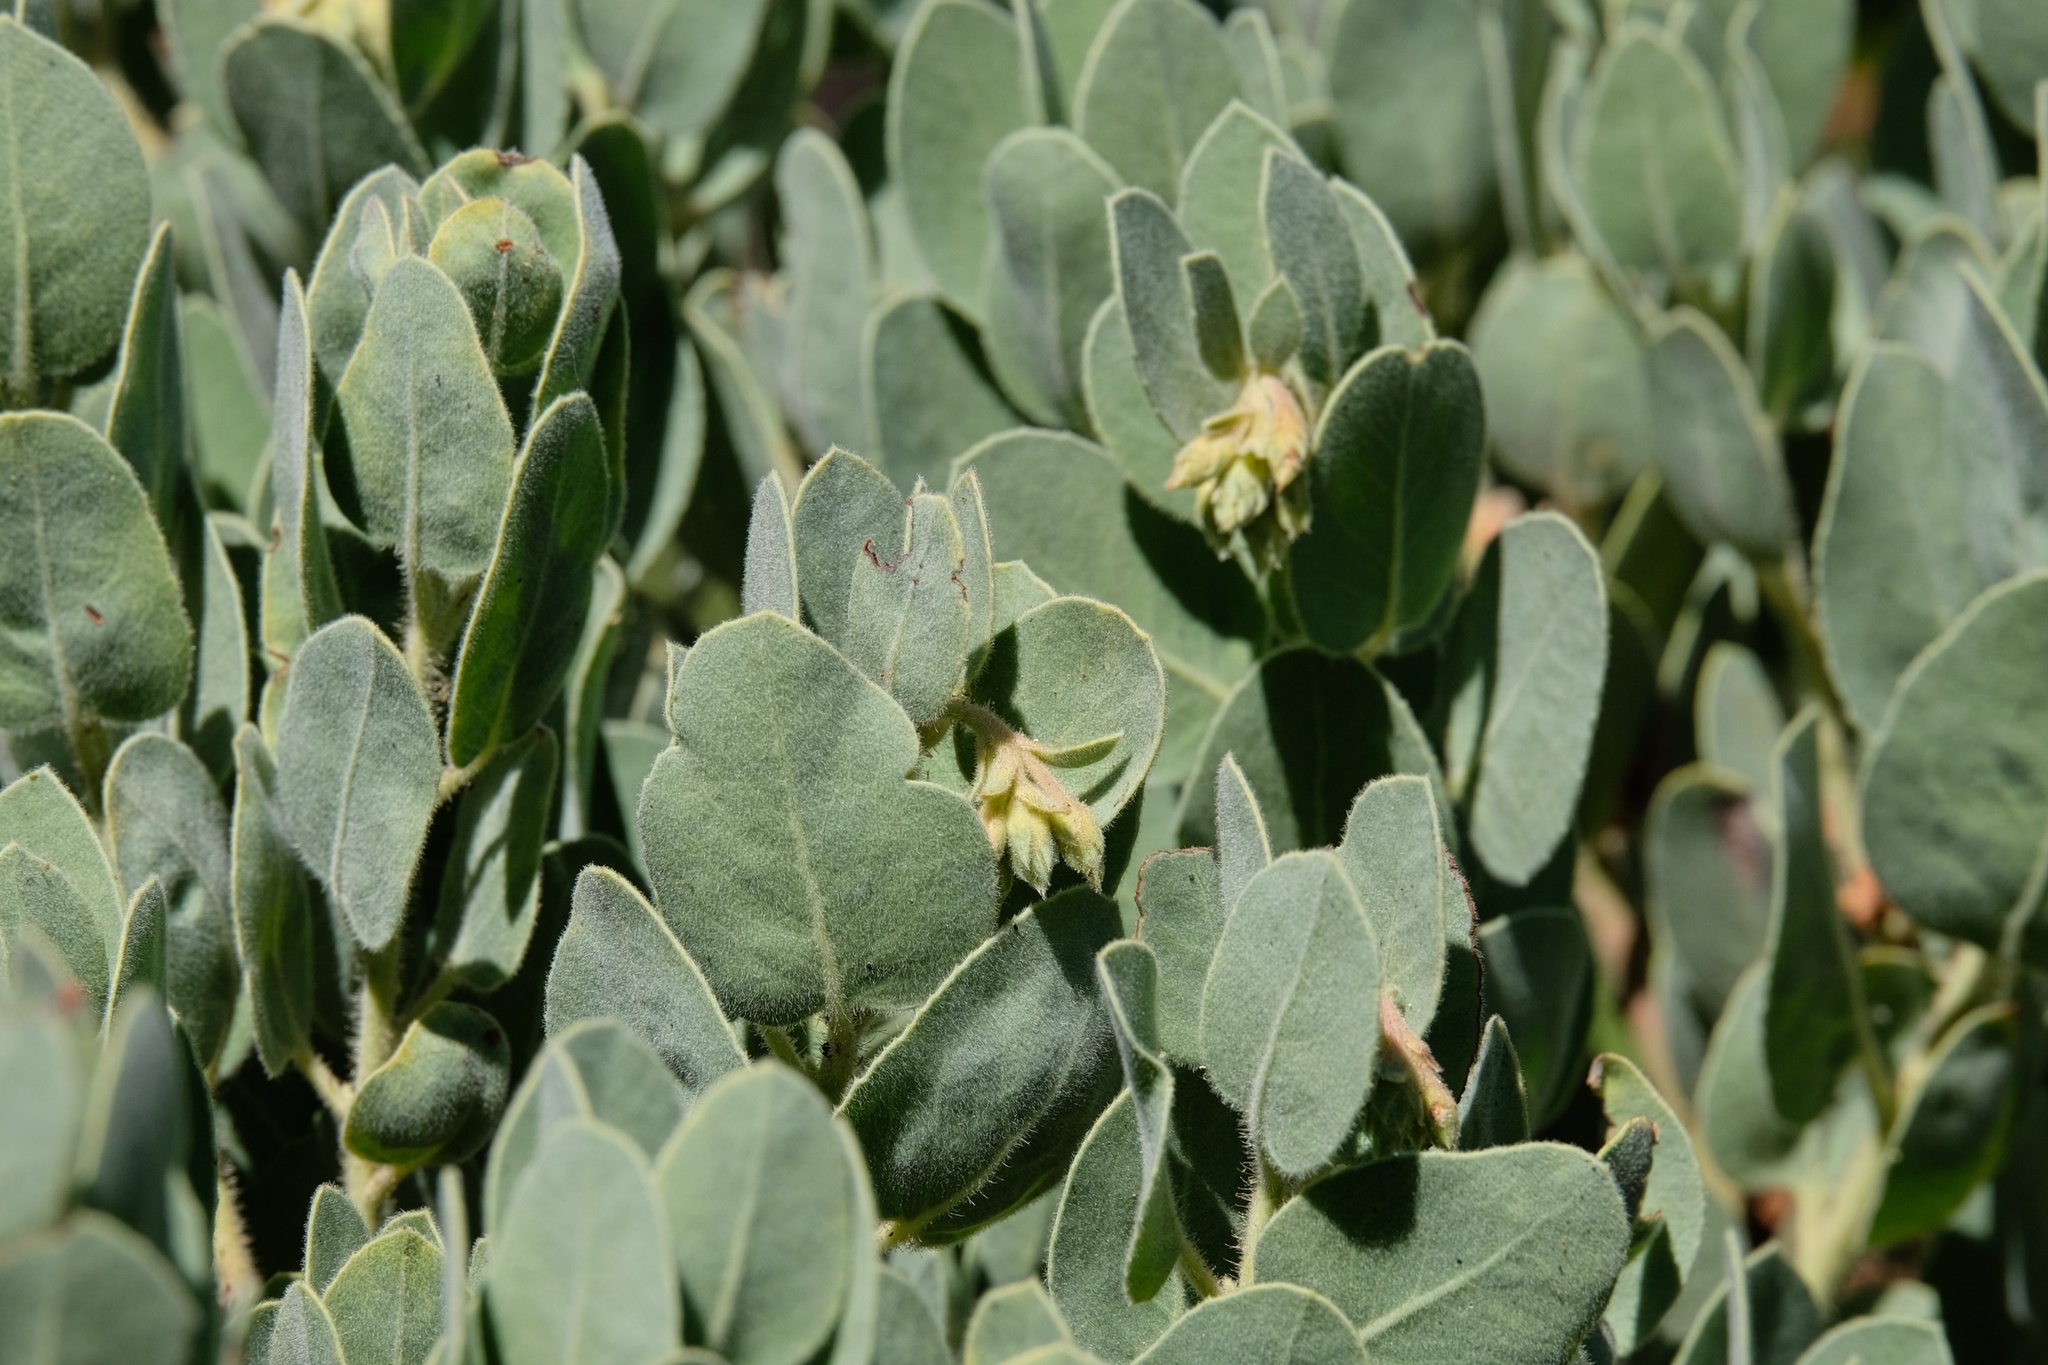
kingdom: Plantae
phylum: Tracheophyta
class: Magnoliopsida
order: Ericales
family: Ericaceae
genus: Arctostaphylos
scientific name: Arctostaphylos glandulosa
